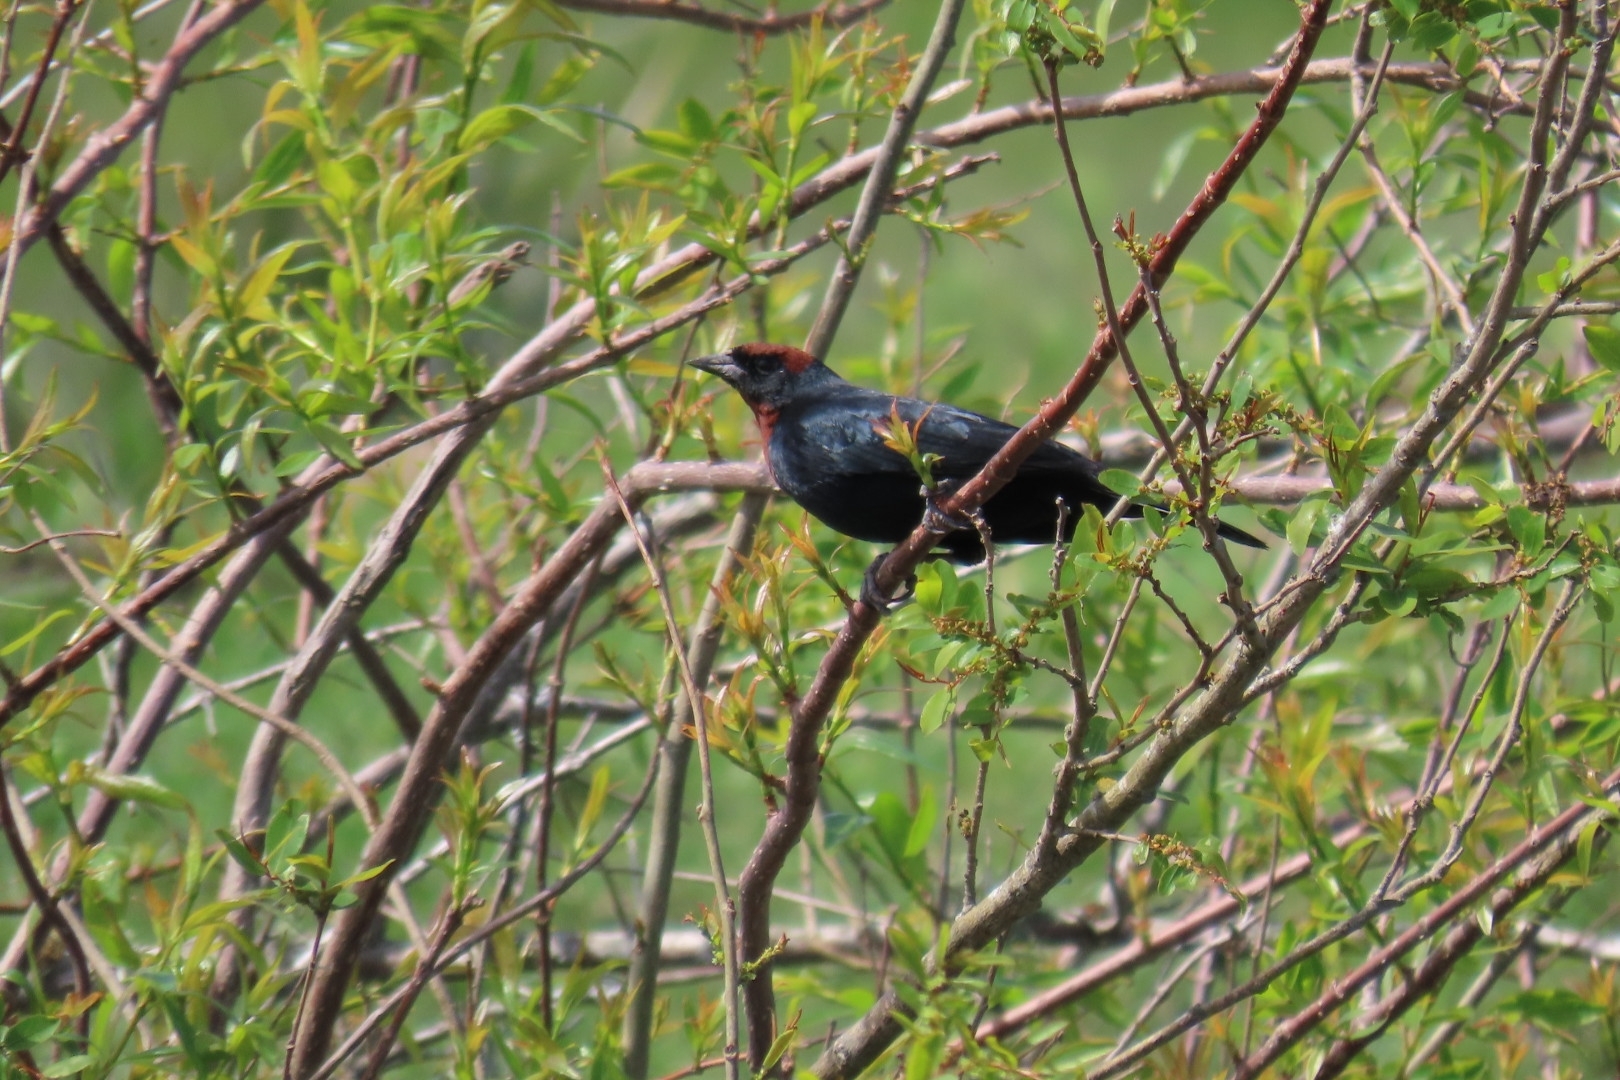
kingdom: Animalia
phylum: Chordata
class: Aves
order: Passeriformes
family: Icteridae
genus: Chrysomus
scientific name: Chrysomus ruficapillus
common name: Chestnut-capped blackbird
